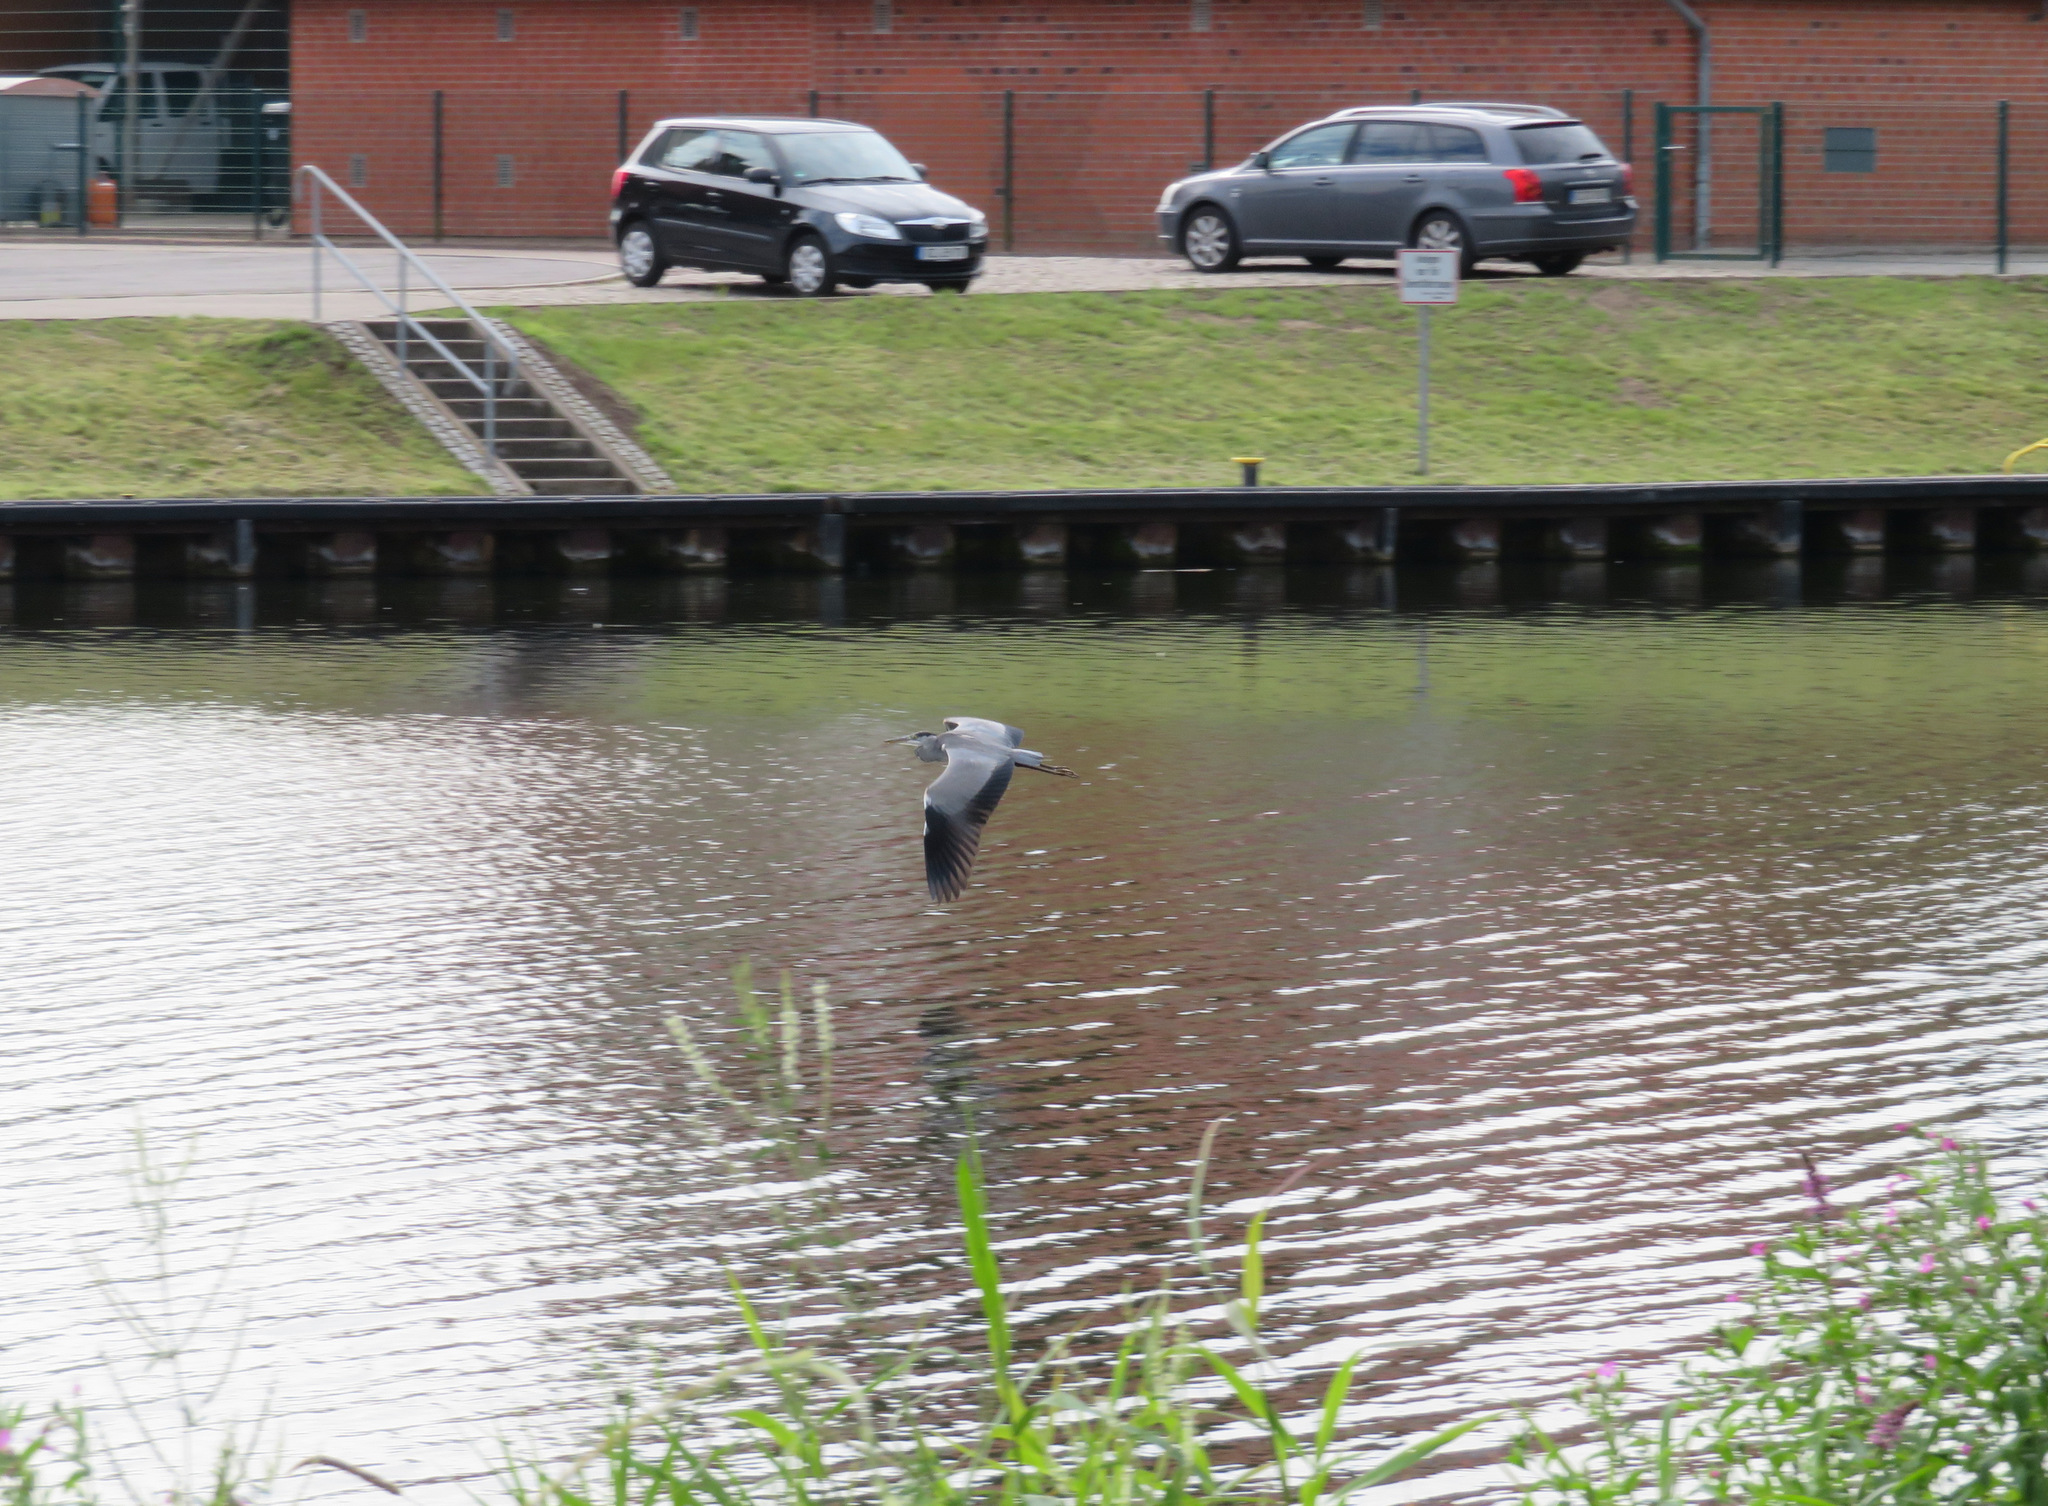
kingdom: Animalia
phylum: Chordata
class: Aves
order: Pelecaniformes
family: Ardeidae
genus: Ardea
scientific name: Ardea cinerea
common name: Grey heron
